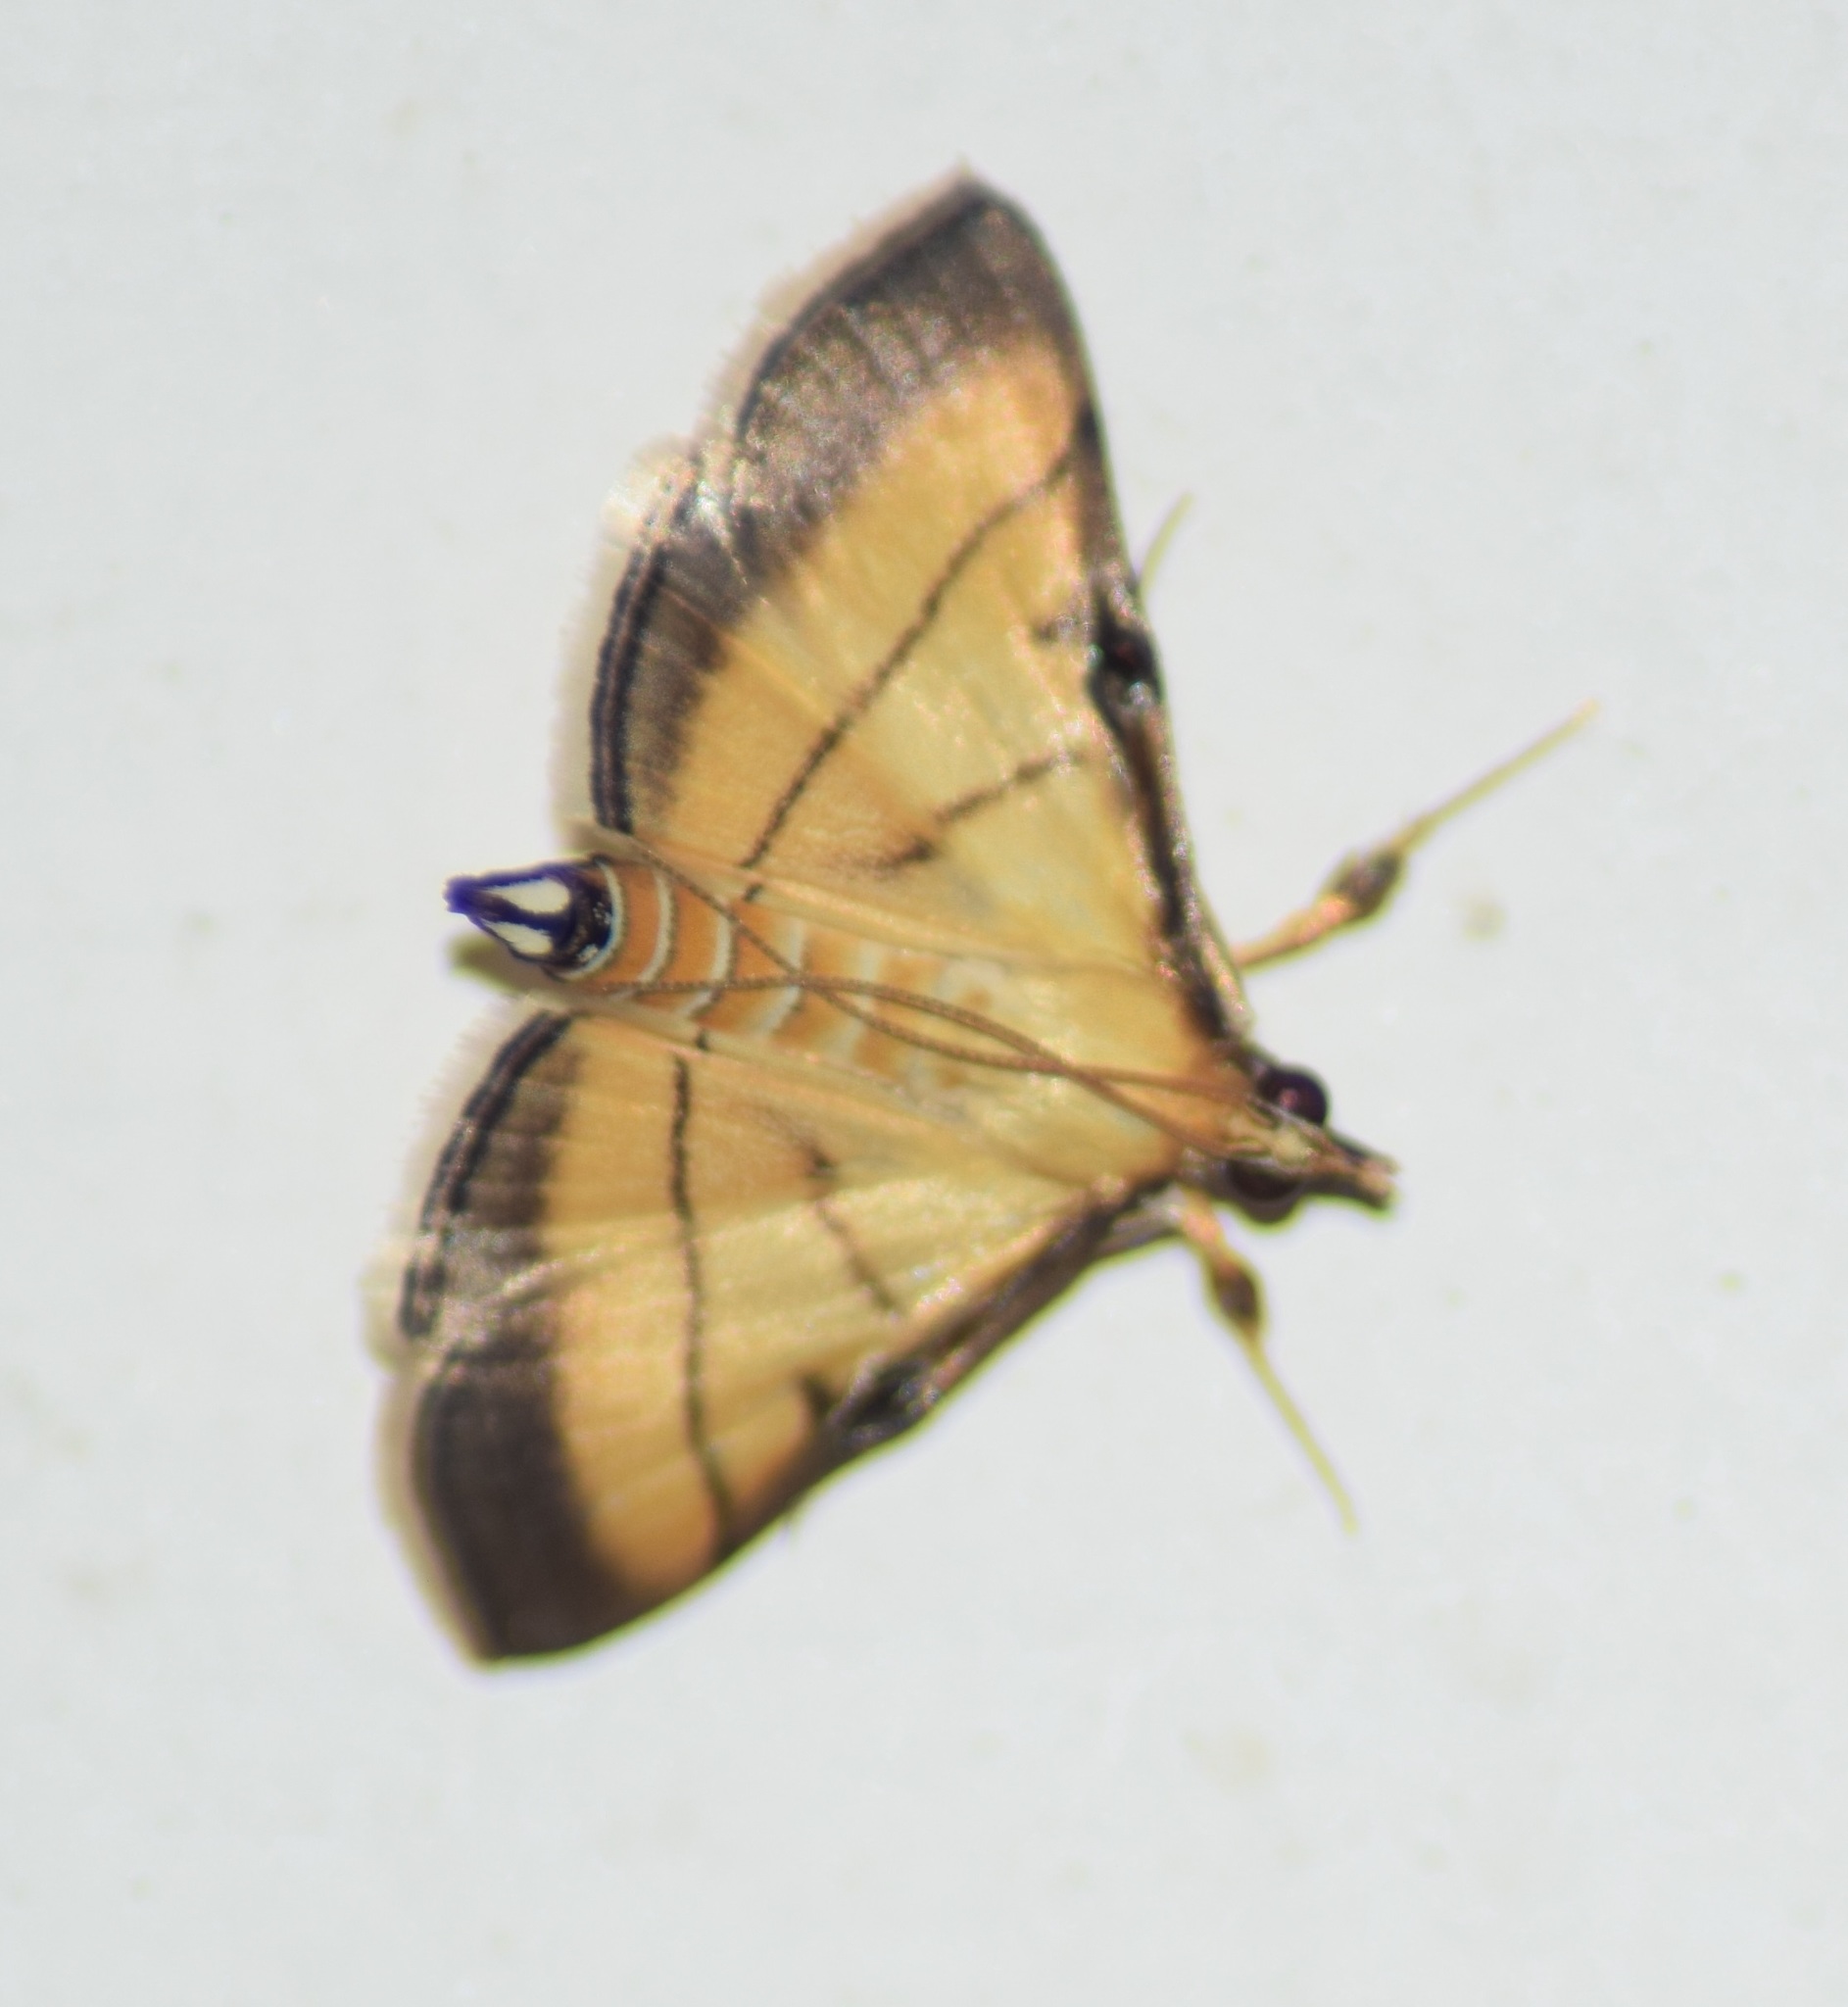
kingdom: Animalia
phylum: Arthropoda
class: Insecta
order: Lepidoptera
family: Crambidae
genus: Cnaphalocrocis
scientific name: Cnaphalocrocis medinalis
